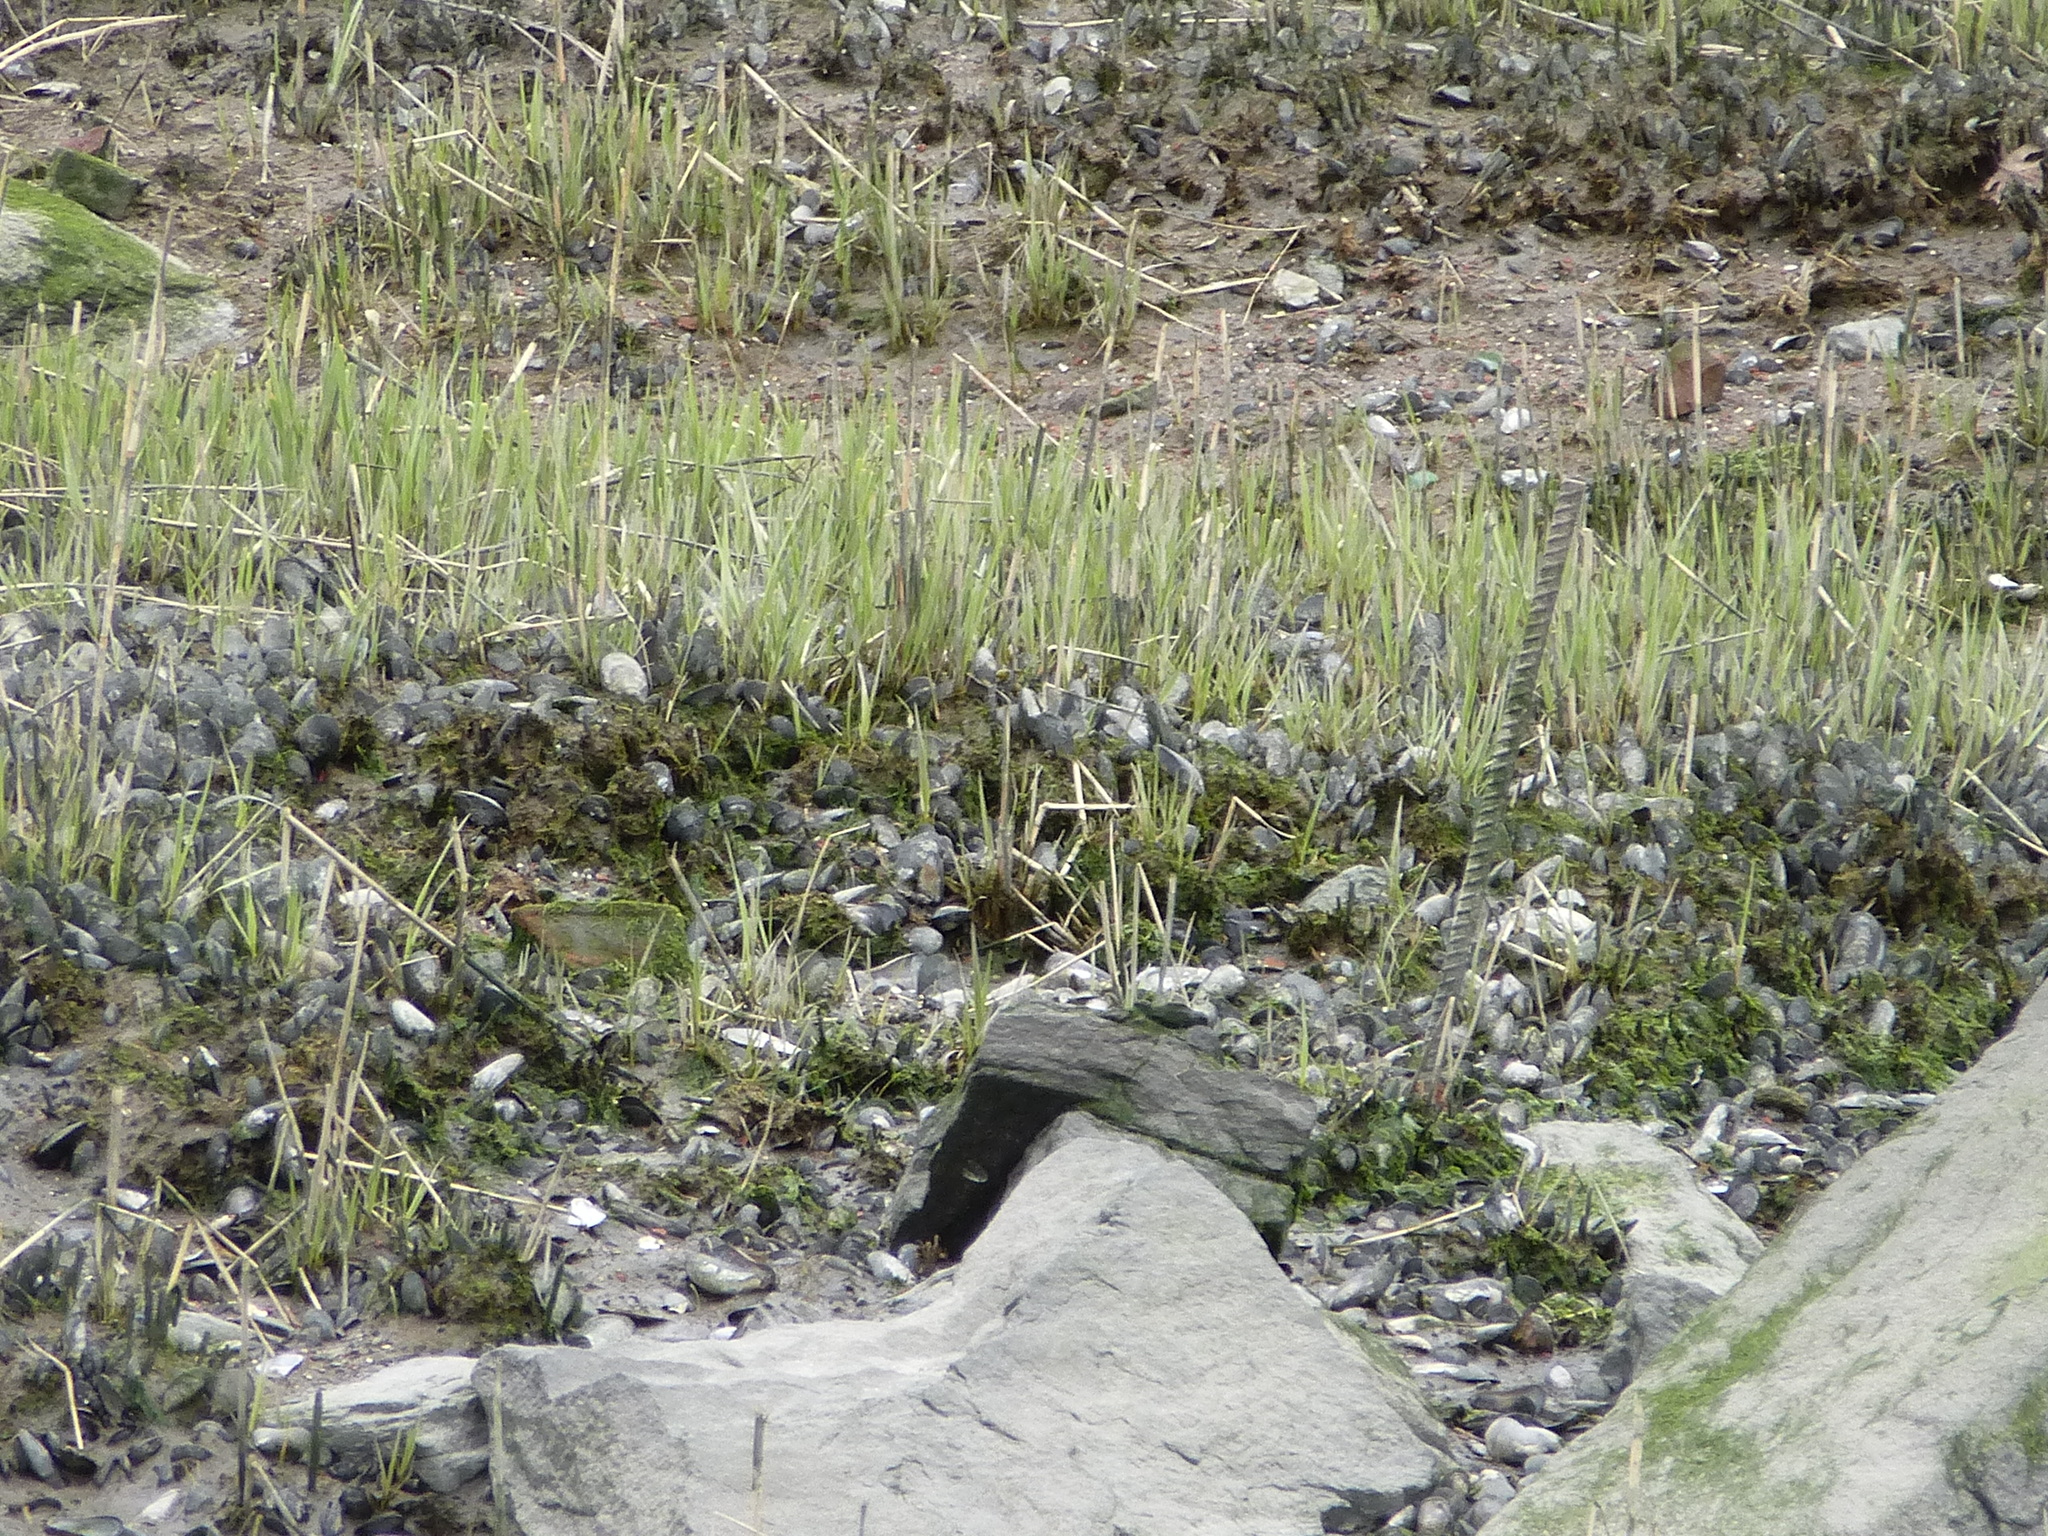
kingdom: Animalia
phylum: Mollusca
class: Bivalvia
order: Mytilida
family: Mytilidae
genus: Geukensia
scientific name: Geukensia demissa
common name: Ribbed mussel
